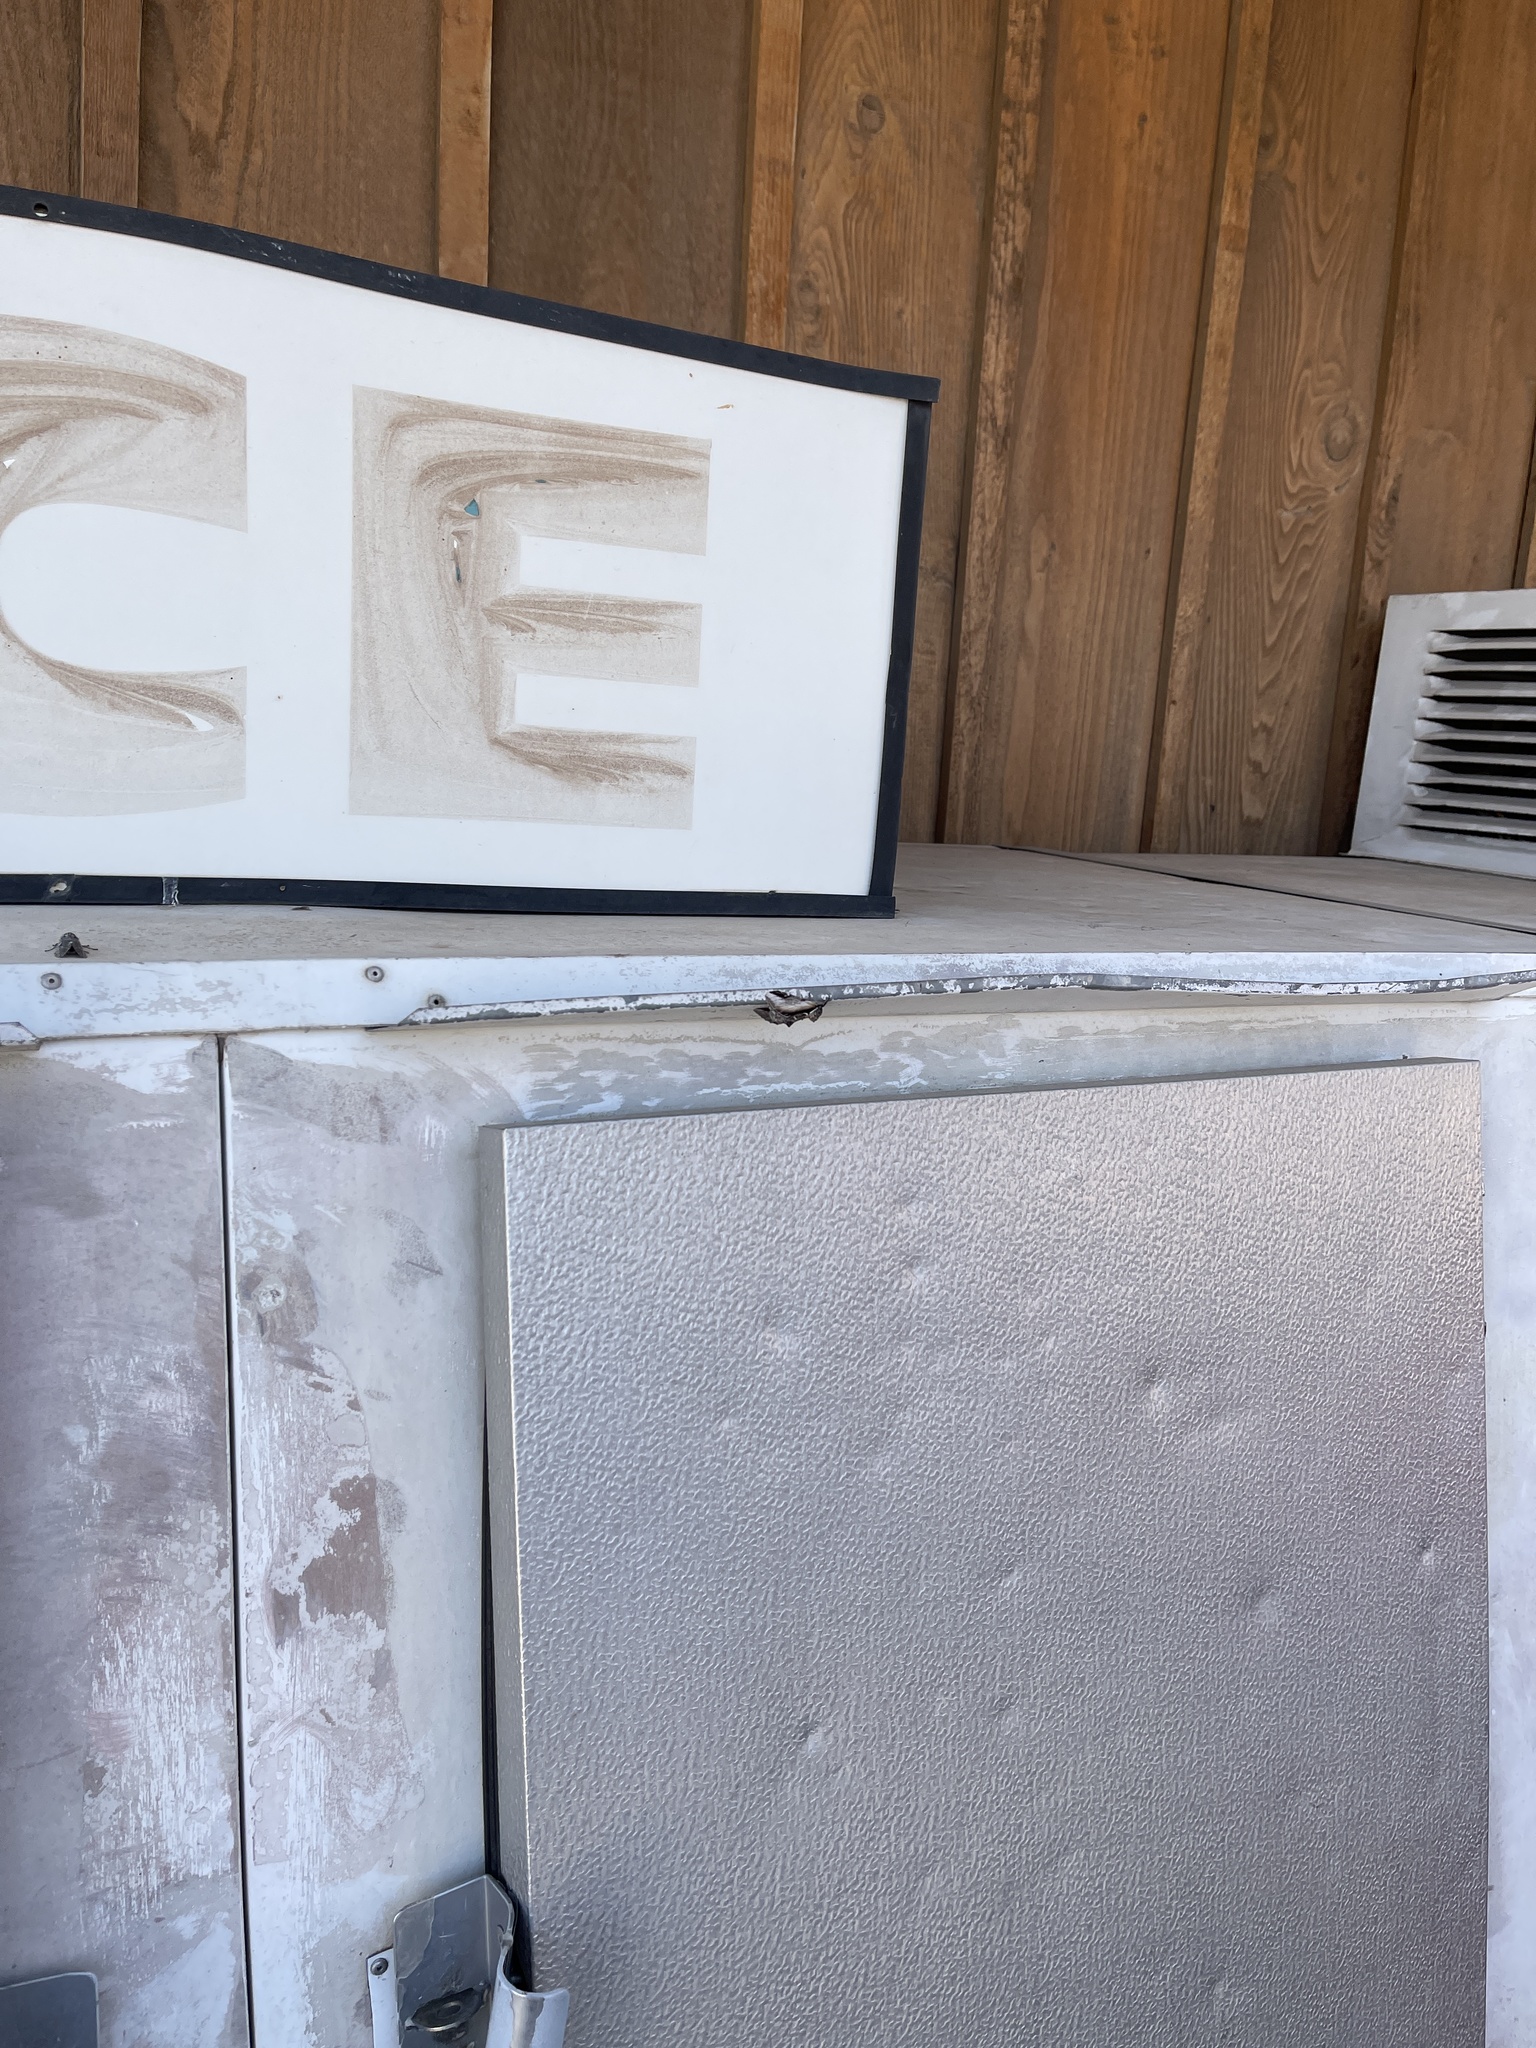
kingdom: Animalia
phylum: Arthropoda
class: Insecta
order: Lepidoptera
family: Notodontidae
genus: Pheosia
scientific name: Pheosia rimosa
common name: Black-rimmed prominent
